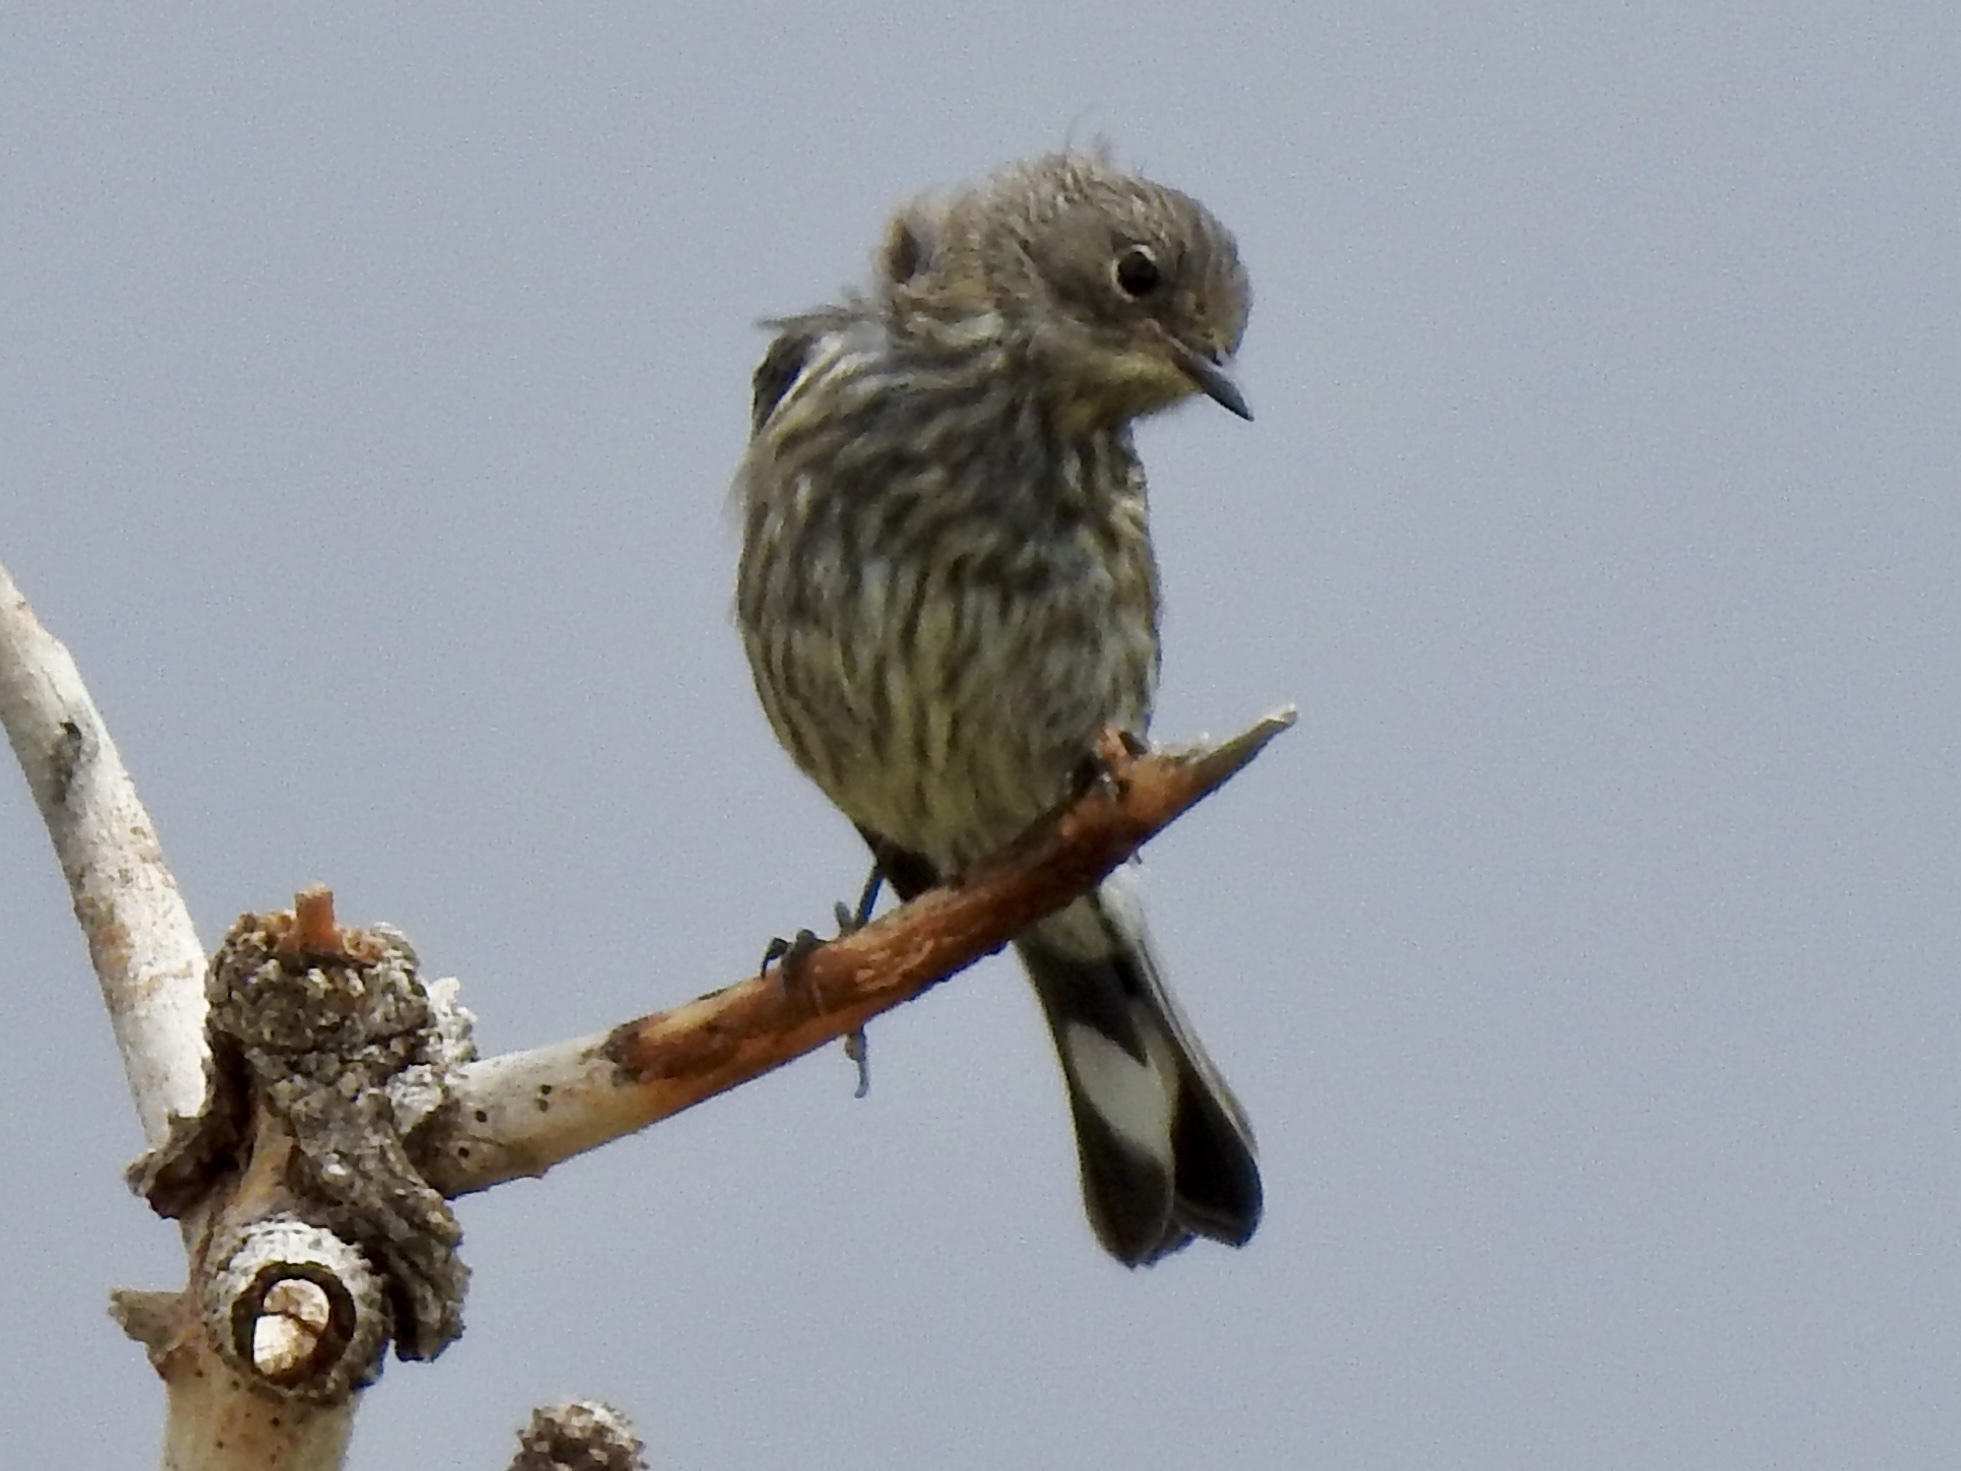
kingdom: Animalia
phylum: Chordata
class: Aves
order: Passeriformes
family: Parulidae
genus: Setophaga
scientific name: Setophaga coronata
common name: Myrtle warbler
